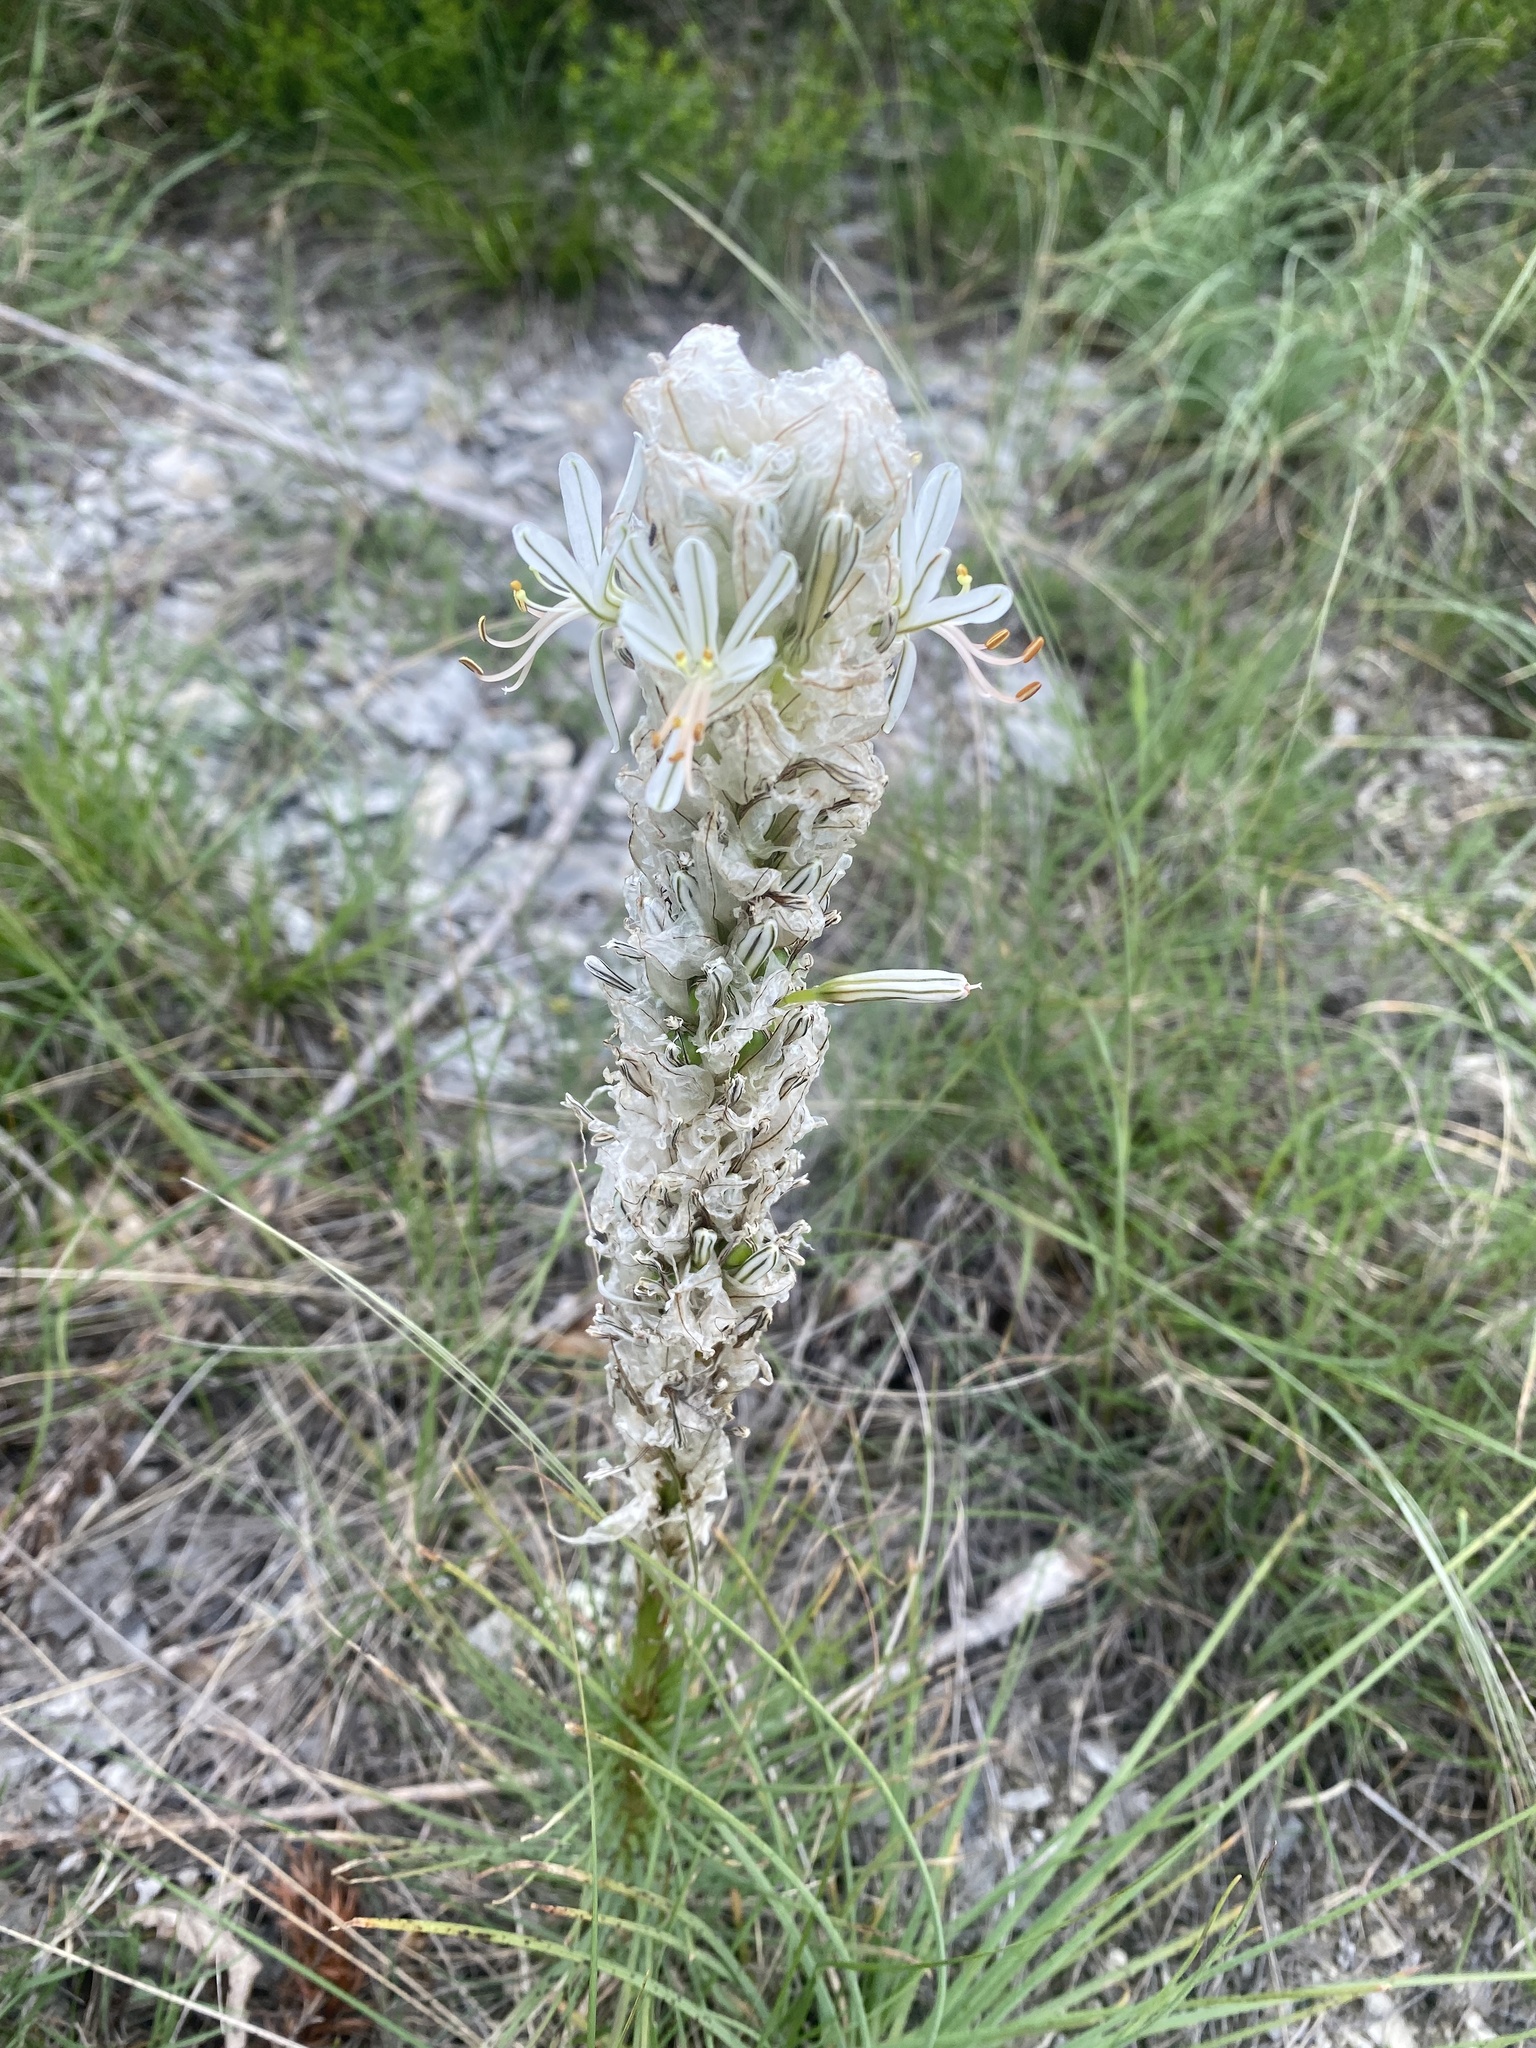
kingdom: Plantae
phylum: Tracheophyta
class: Liliopsida
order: Asparagales
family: Asphodelaceae
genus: Asphodeline
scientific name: Asphodeline taurica
